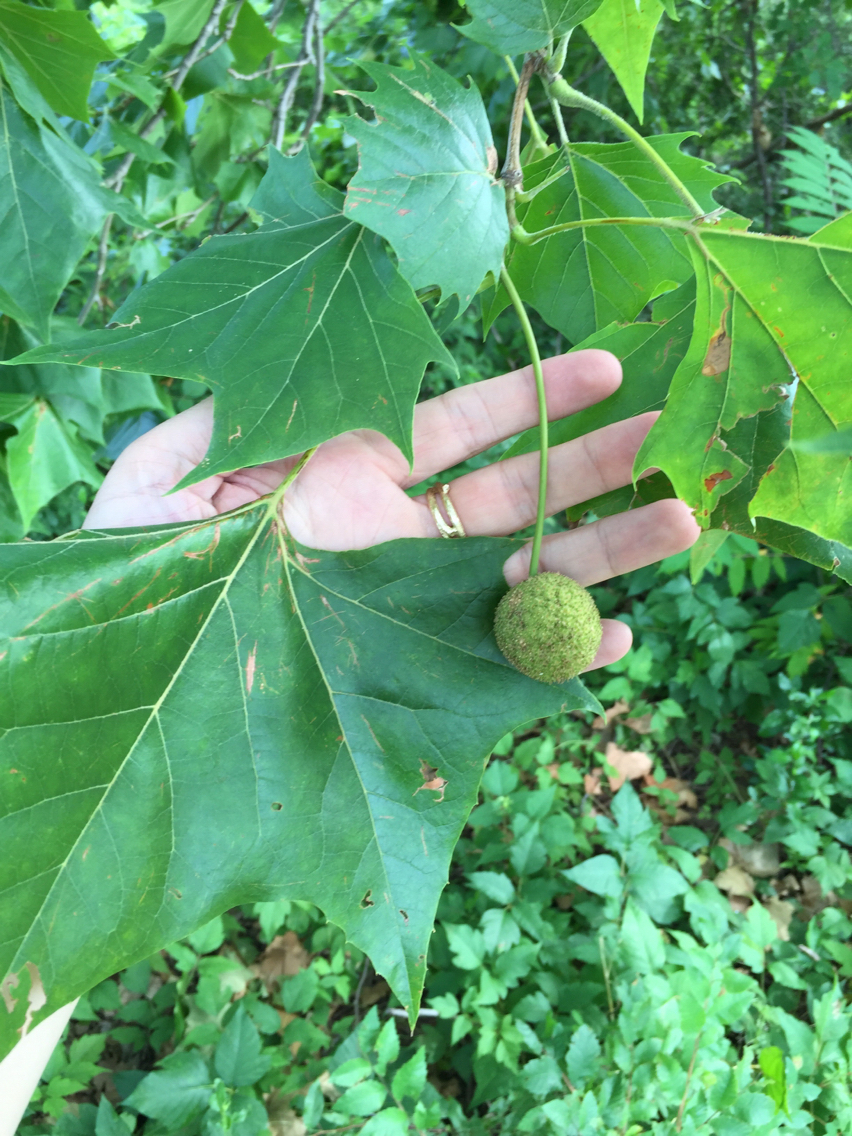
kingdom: Plantae
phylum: Tracheophyta
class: Magnoliopsida
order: Proteales
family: Platanaceae
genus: Platanus
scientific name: Platanus occidentalis
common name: American sycamore
